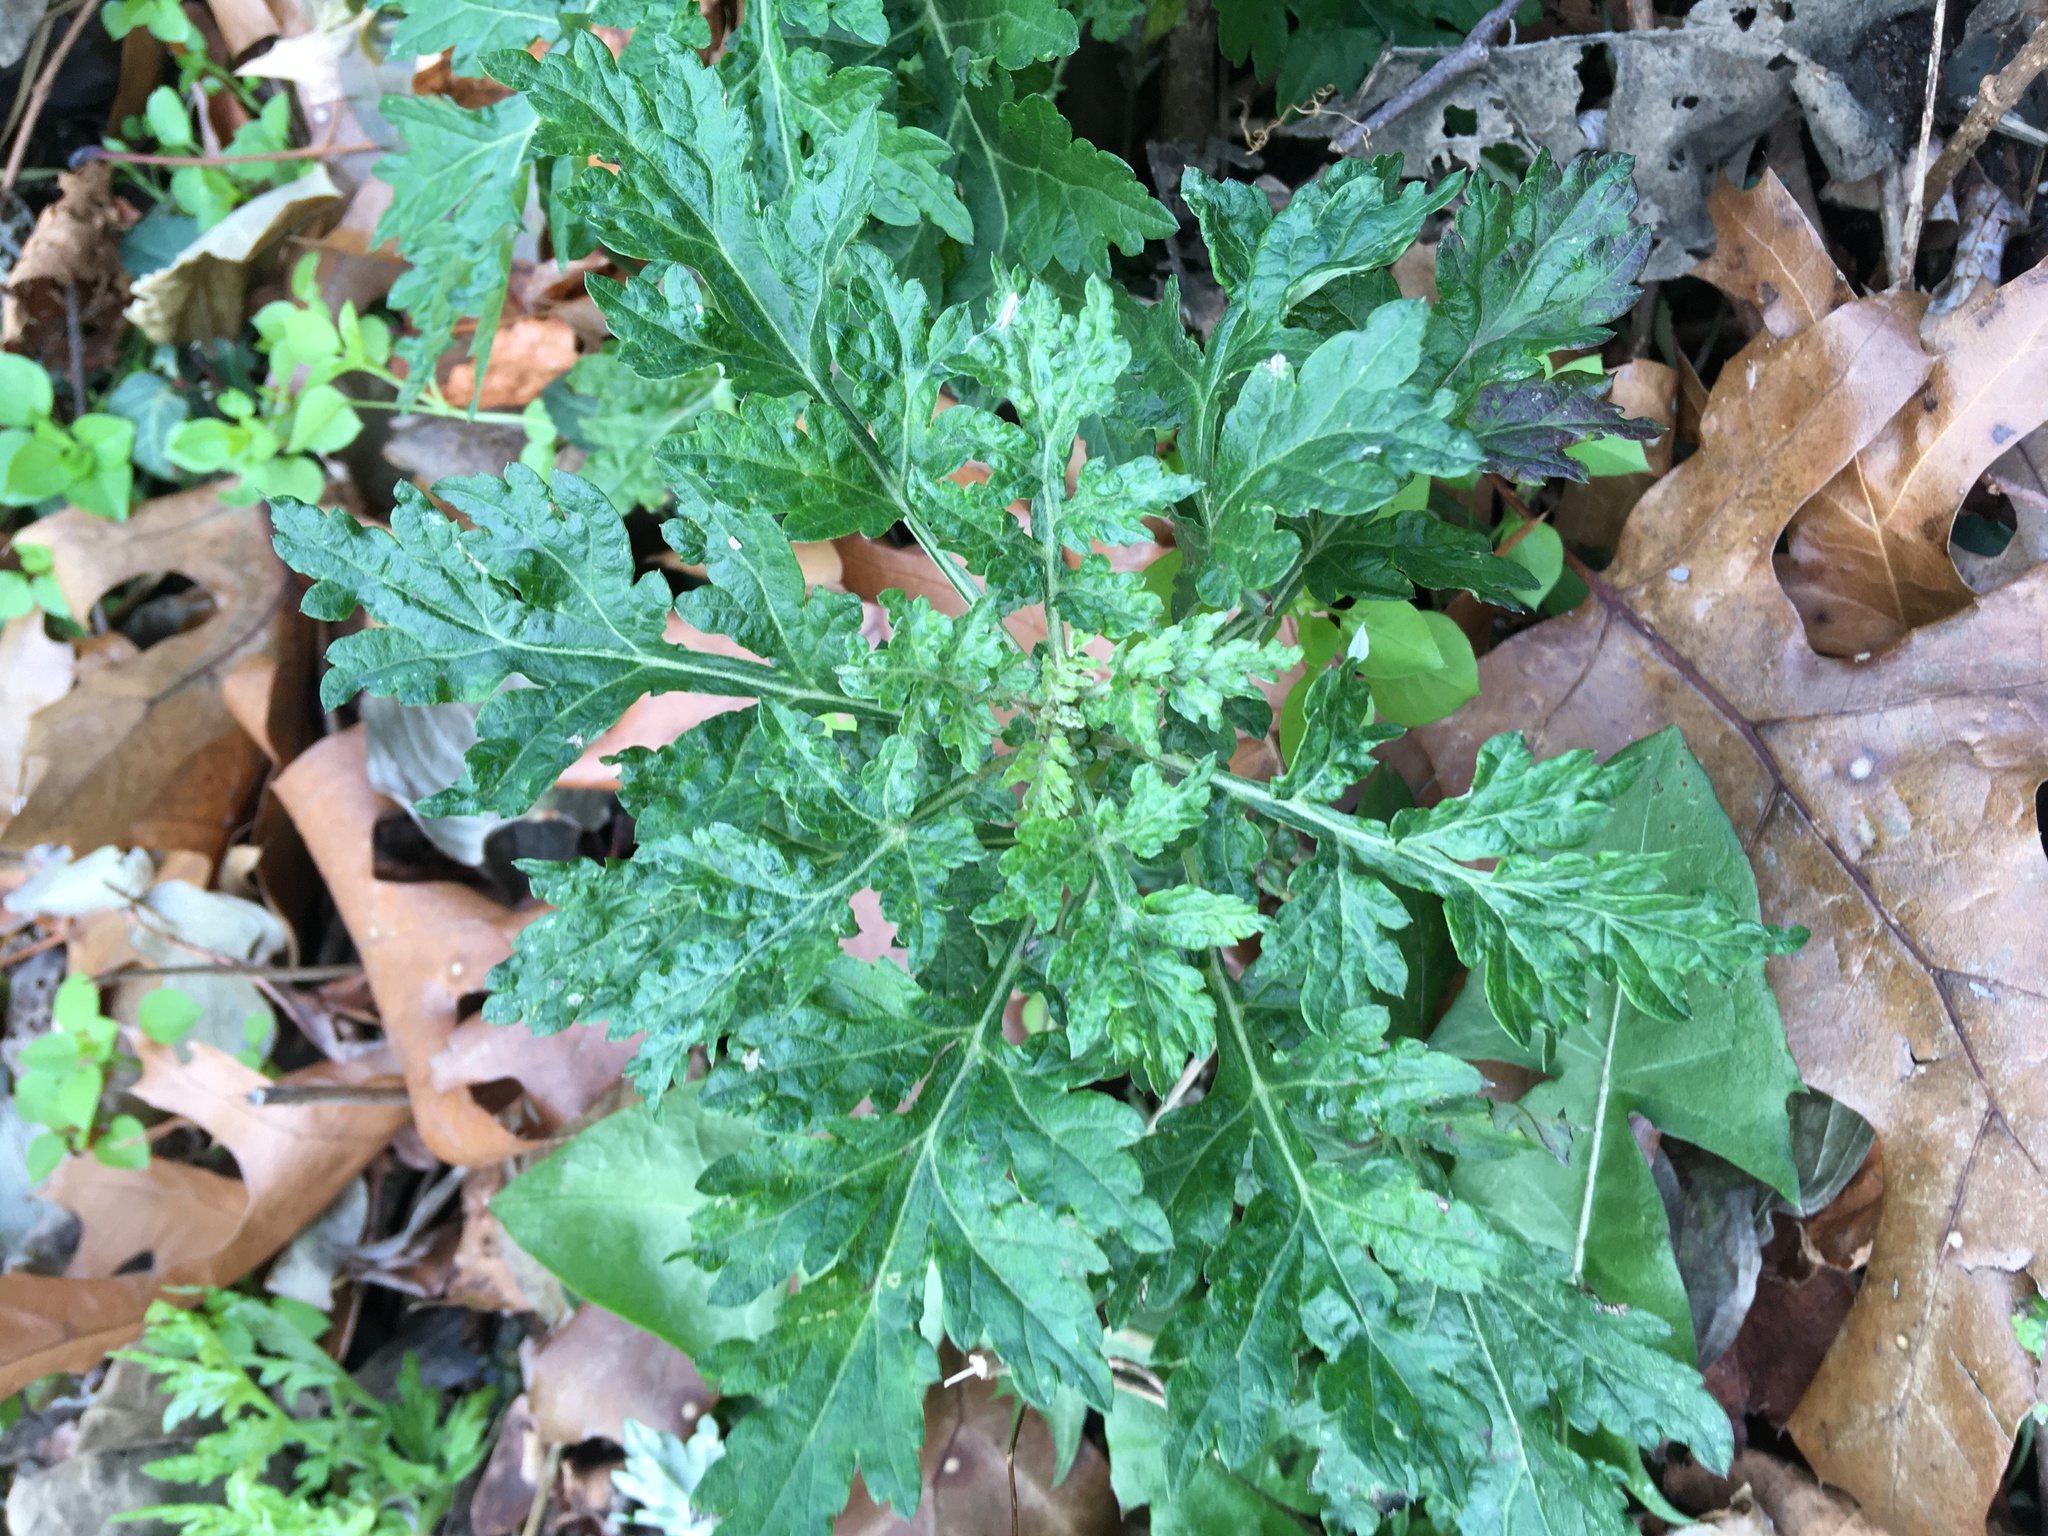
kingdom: Plantae
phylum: Tracheophyta
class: Magnoliopsida
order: Asterales
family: Asteraceae
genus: Artemisia
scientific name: Artemisia vulgaris
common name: Mugwort
